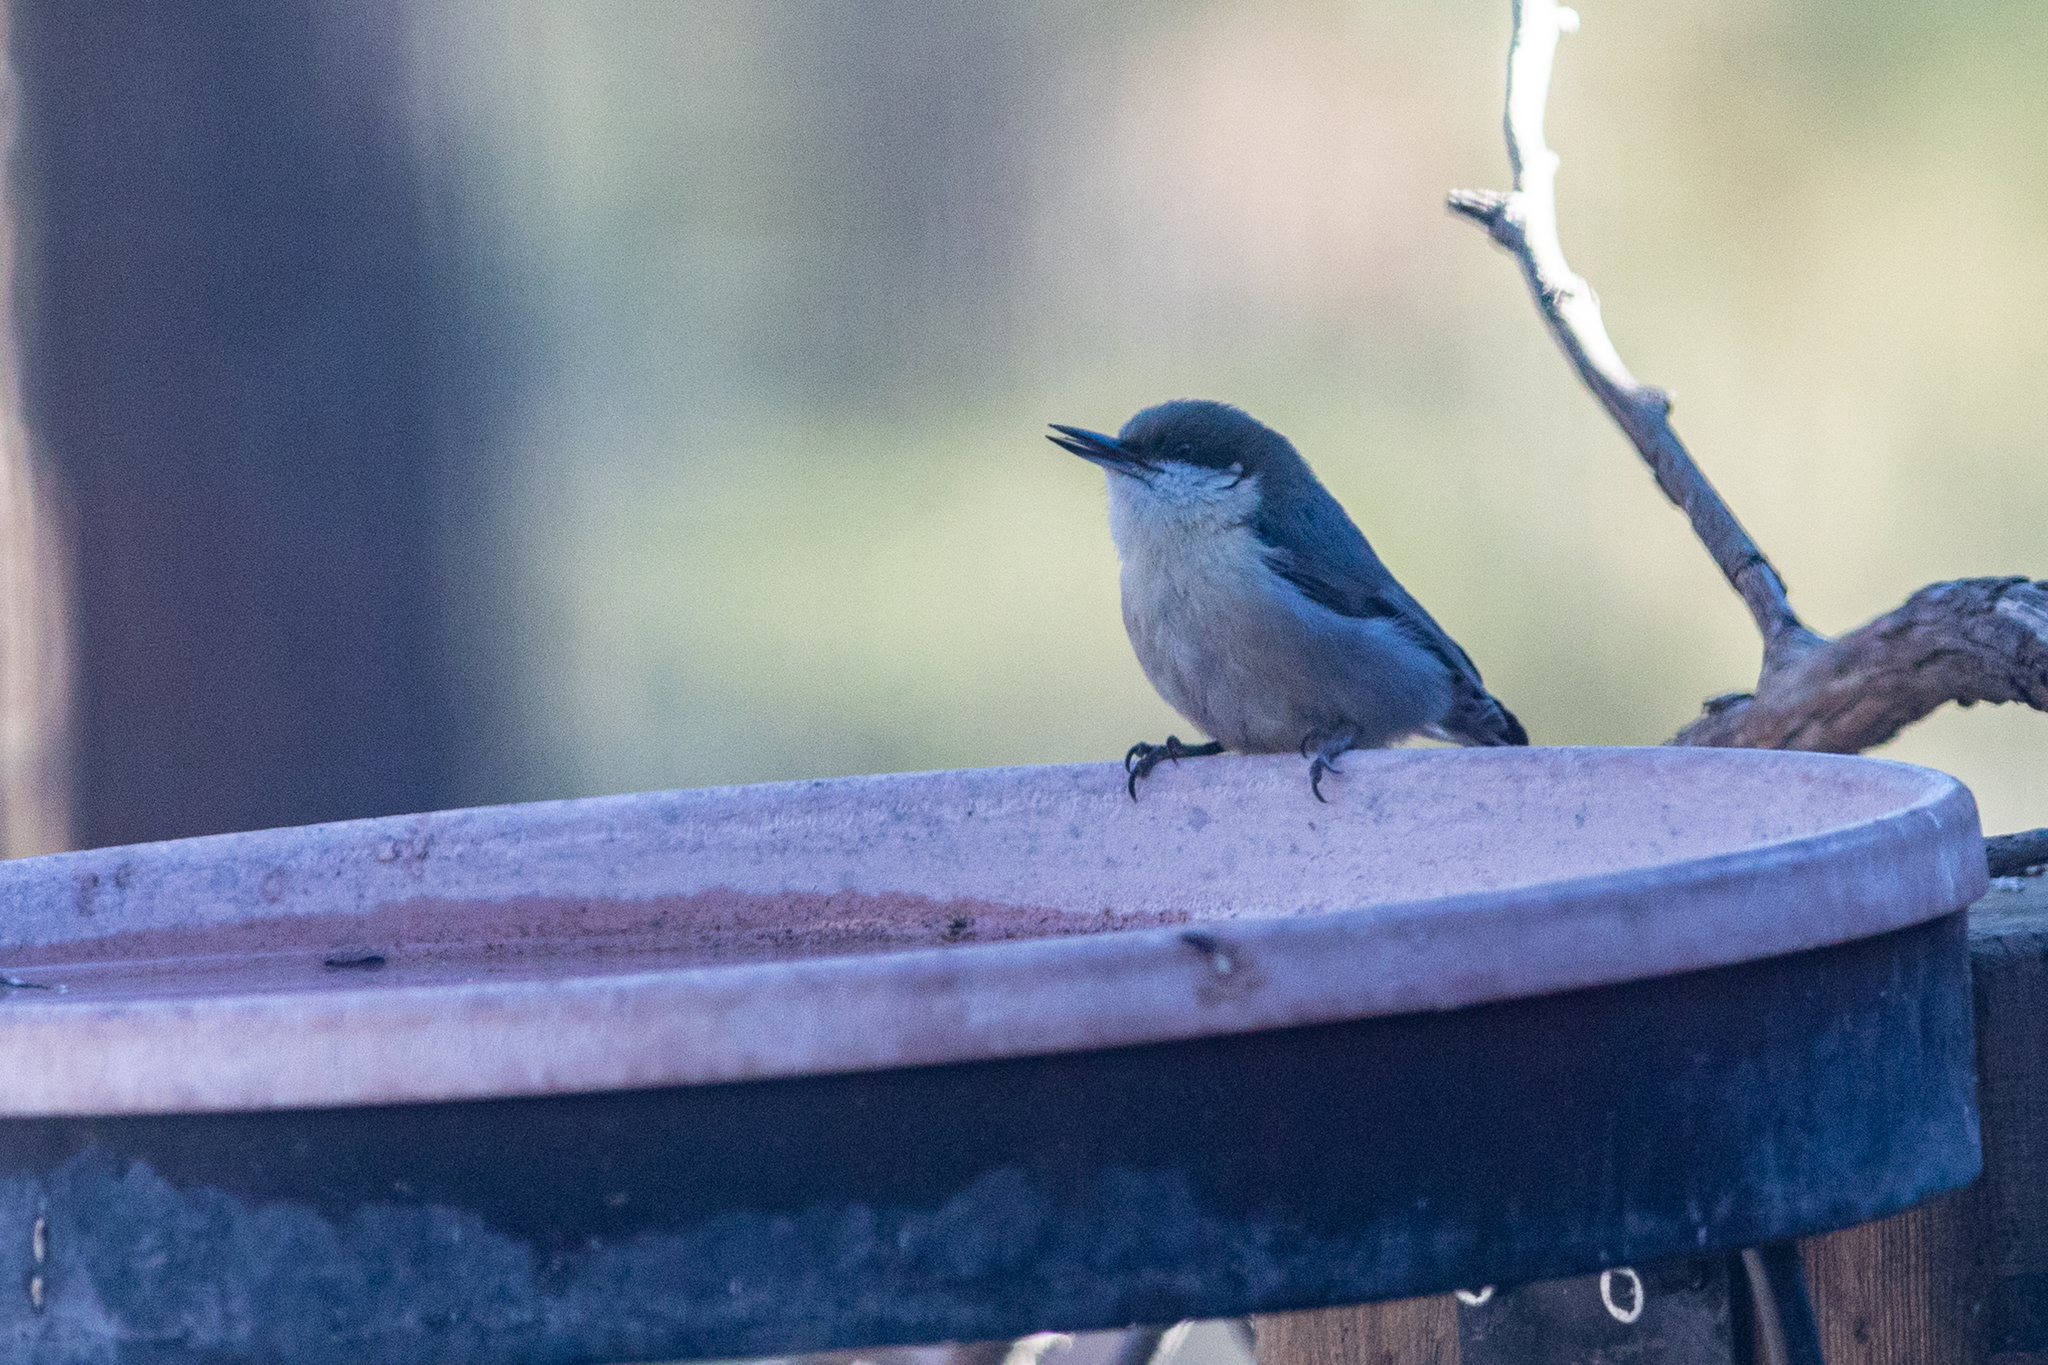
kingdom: Animalia
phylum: Chordata
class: Aves
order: Passeriformes
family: Sittidae
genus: Sitta
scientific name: Sitta pygmaea
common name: Pygmy nuthatch
